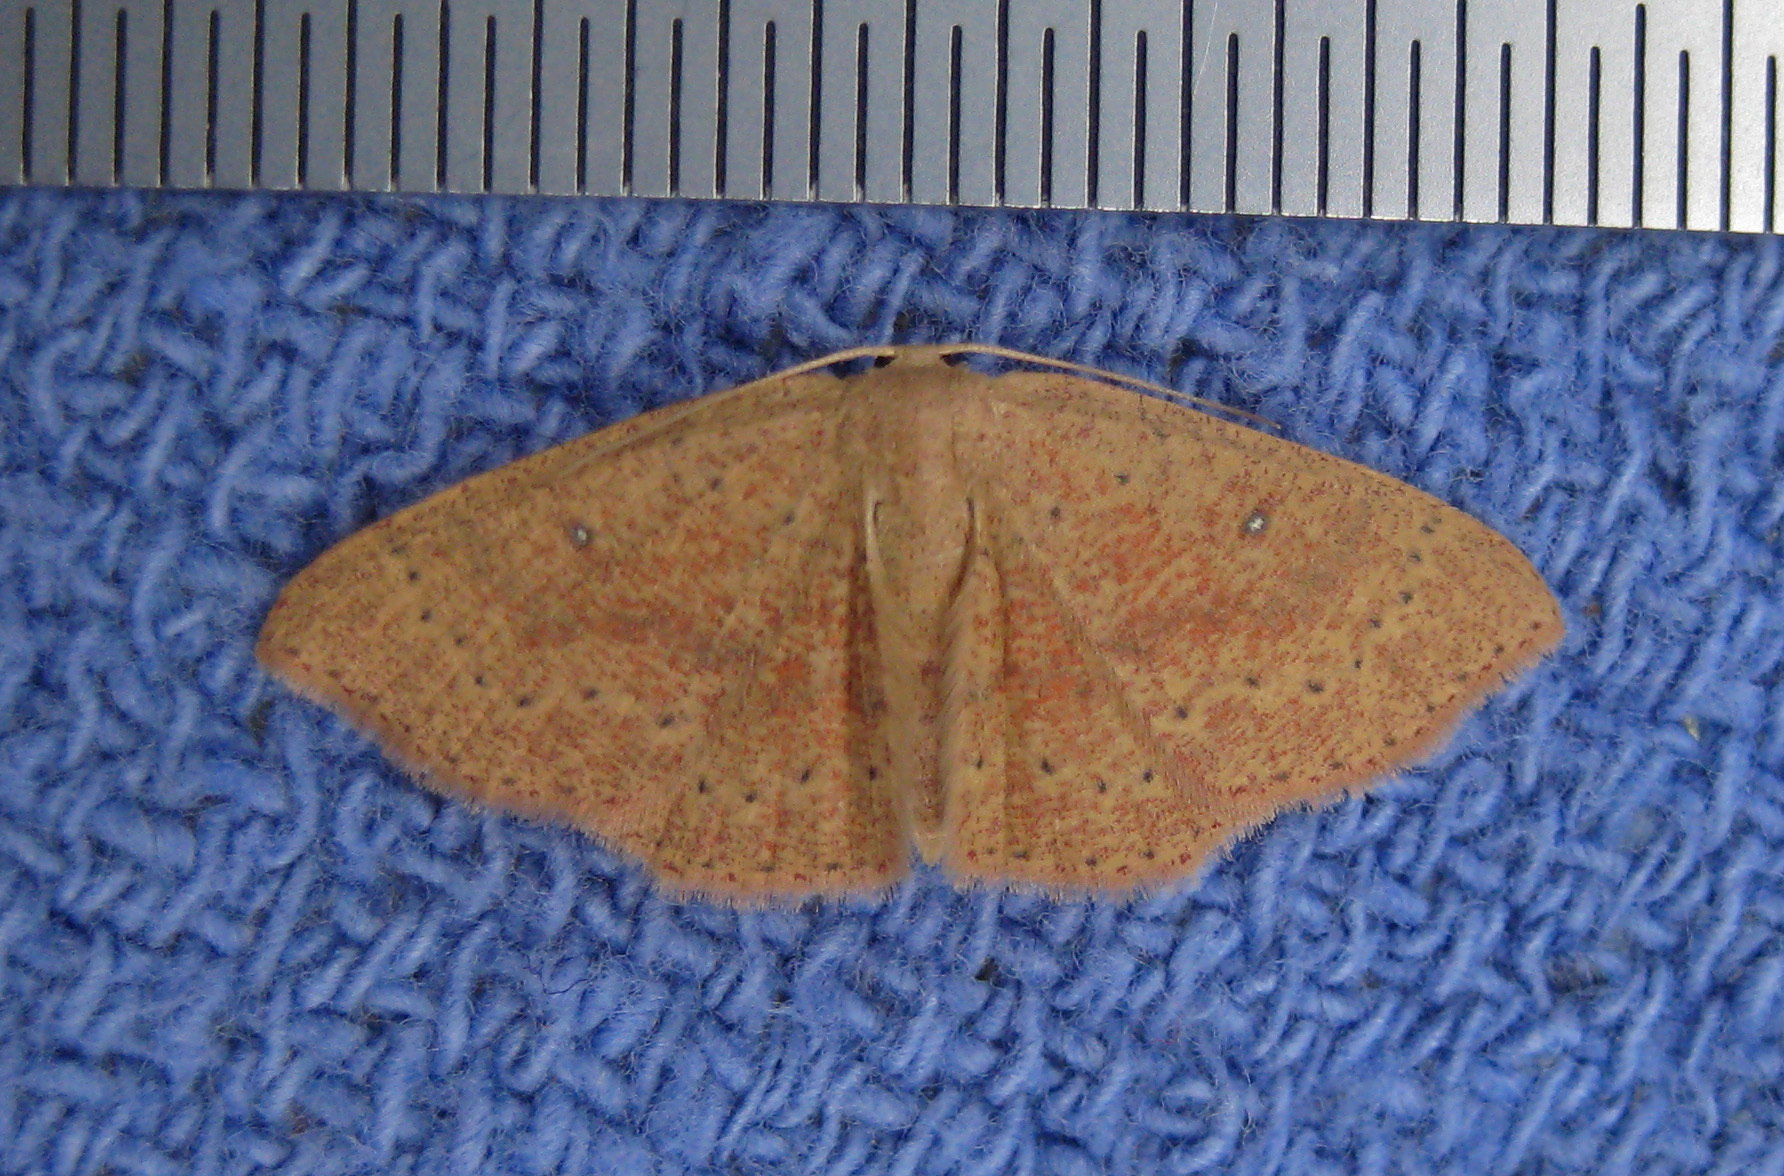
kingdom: Animalia
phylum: Arthropoda
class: Insecta
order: Lepidoptera
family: Geometridae
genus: Cyclophora
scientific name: Cyclophora packardi
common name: Packard's wave
